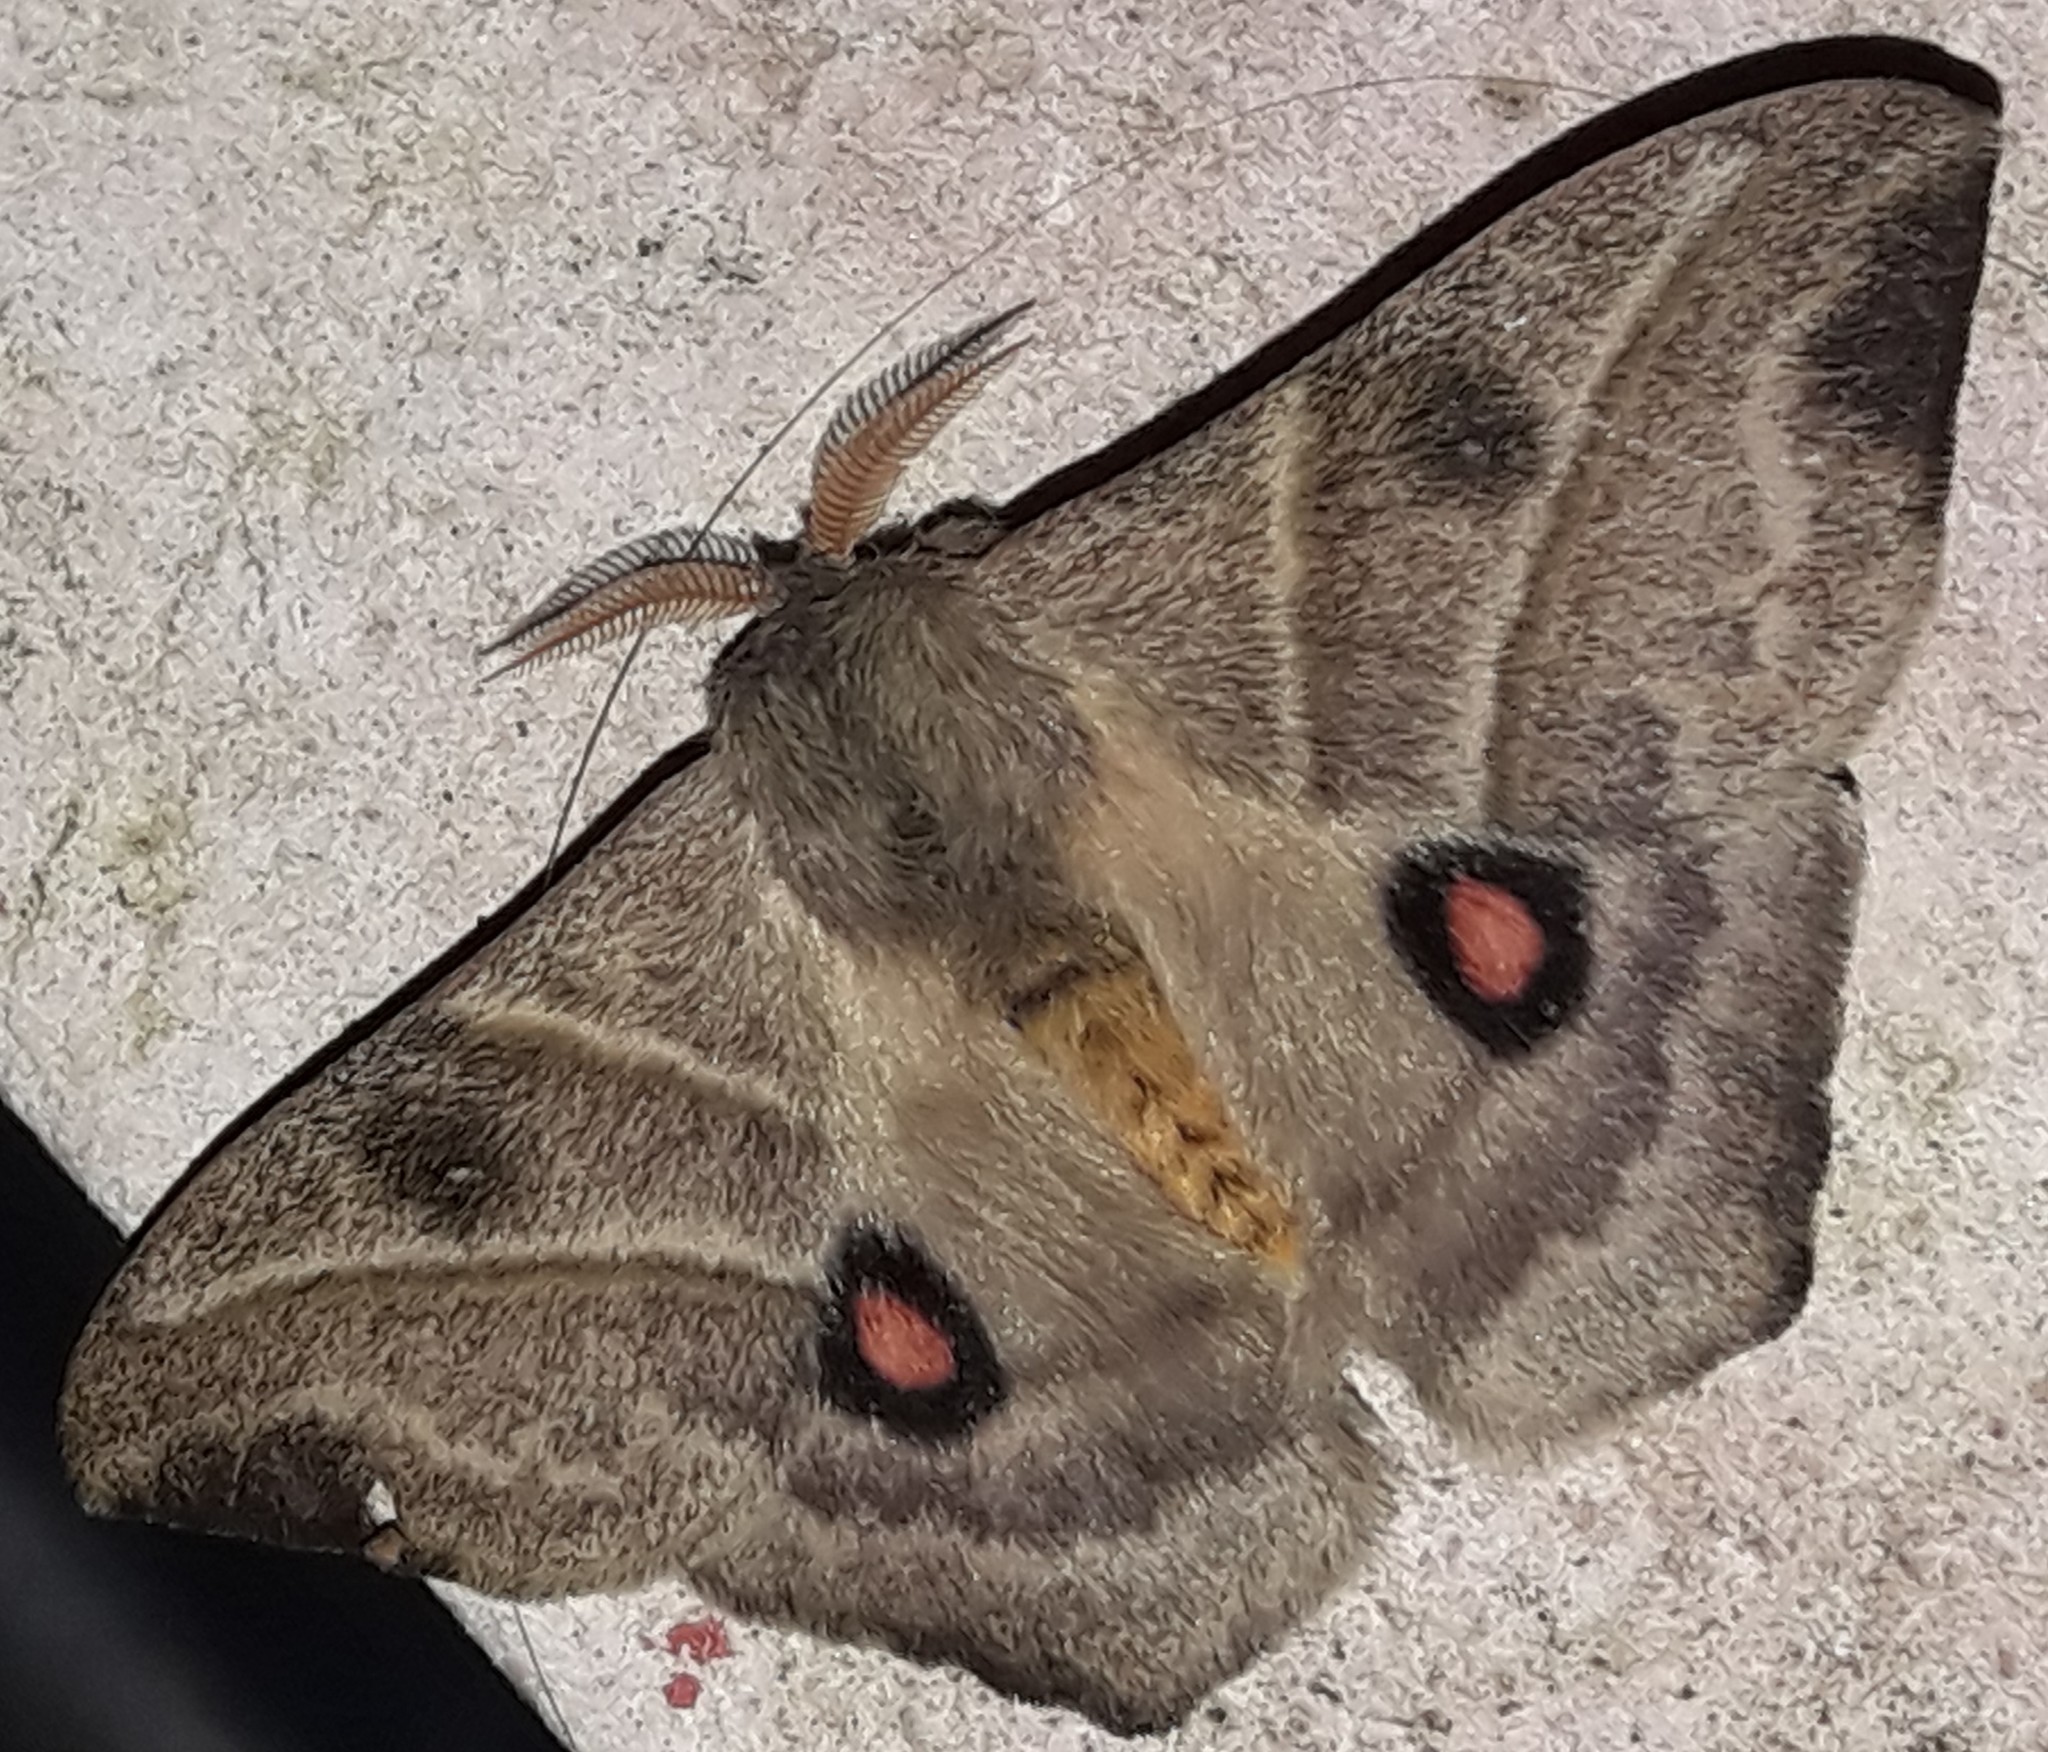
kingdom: Animalia
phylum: Arthropoda
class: Insecta
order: Lepidoptera
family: Saturniidae
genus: Hylesia
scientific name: Hylesia lineata
